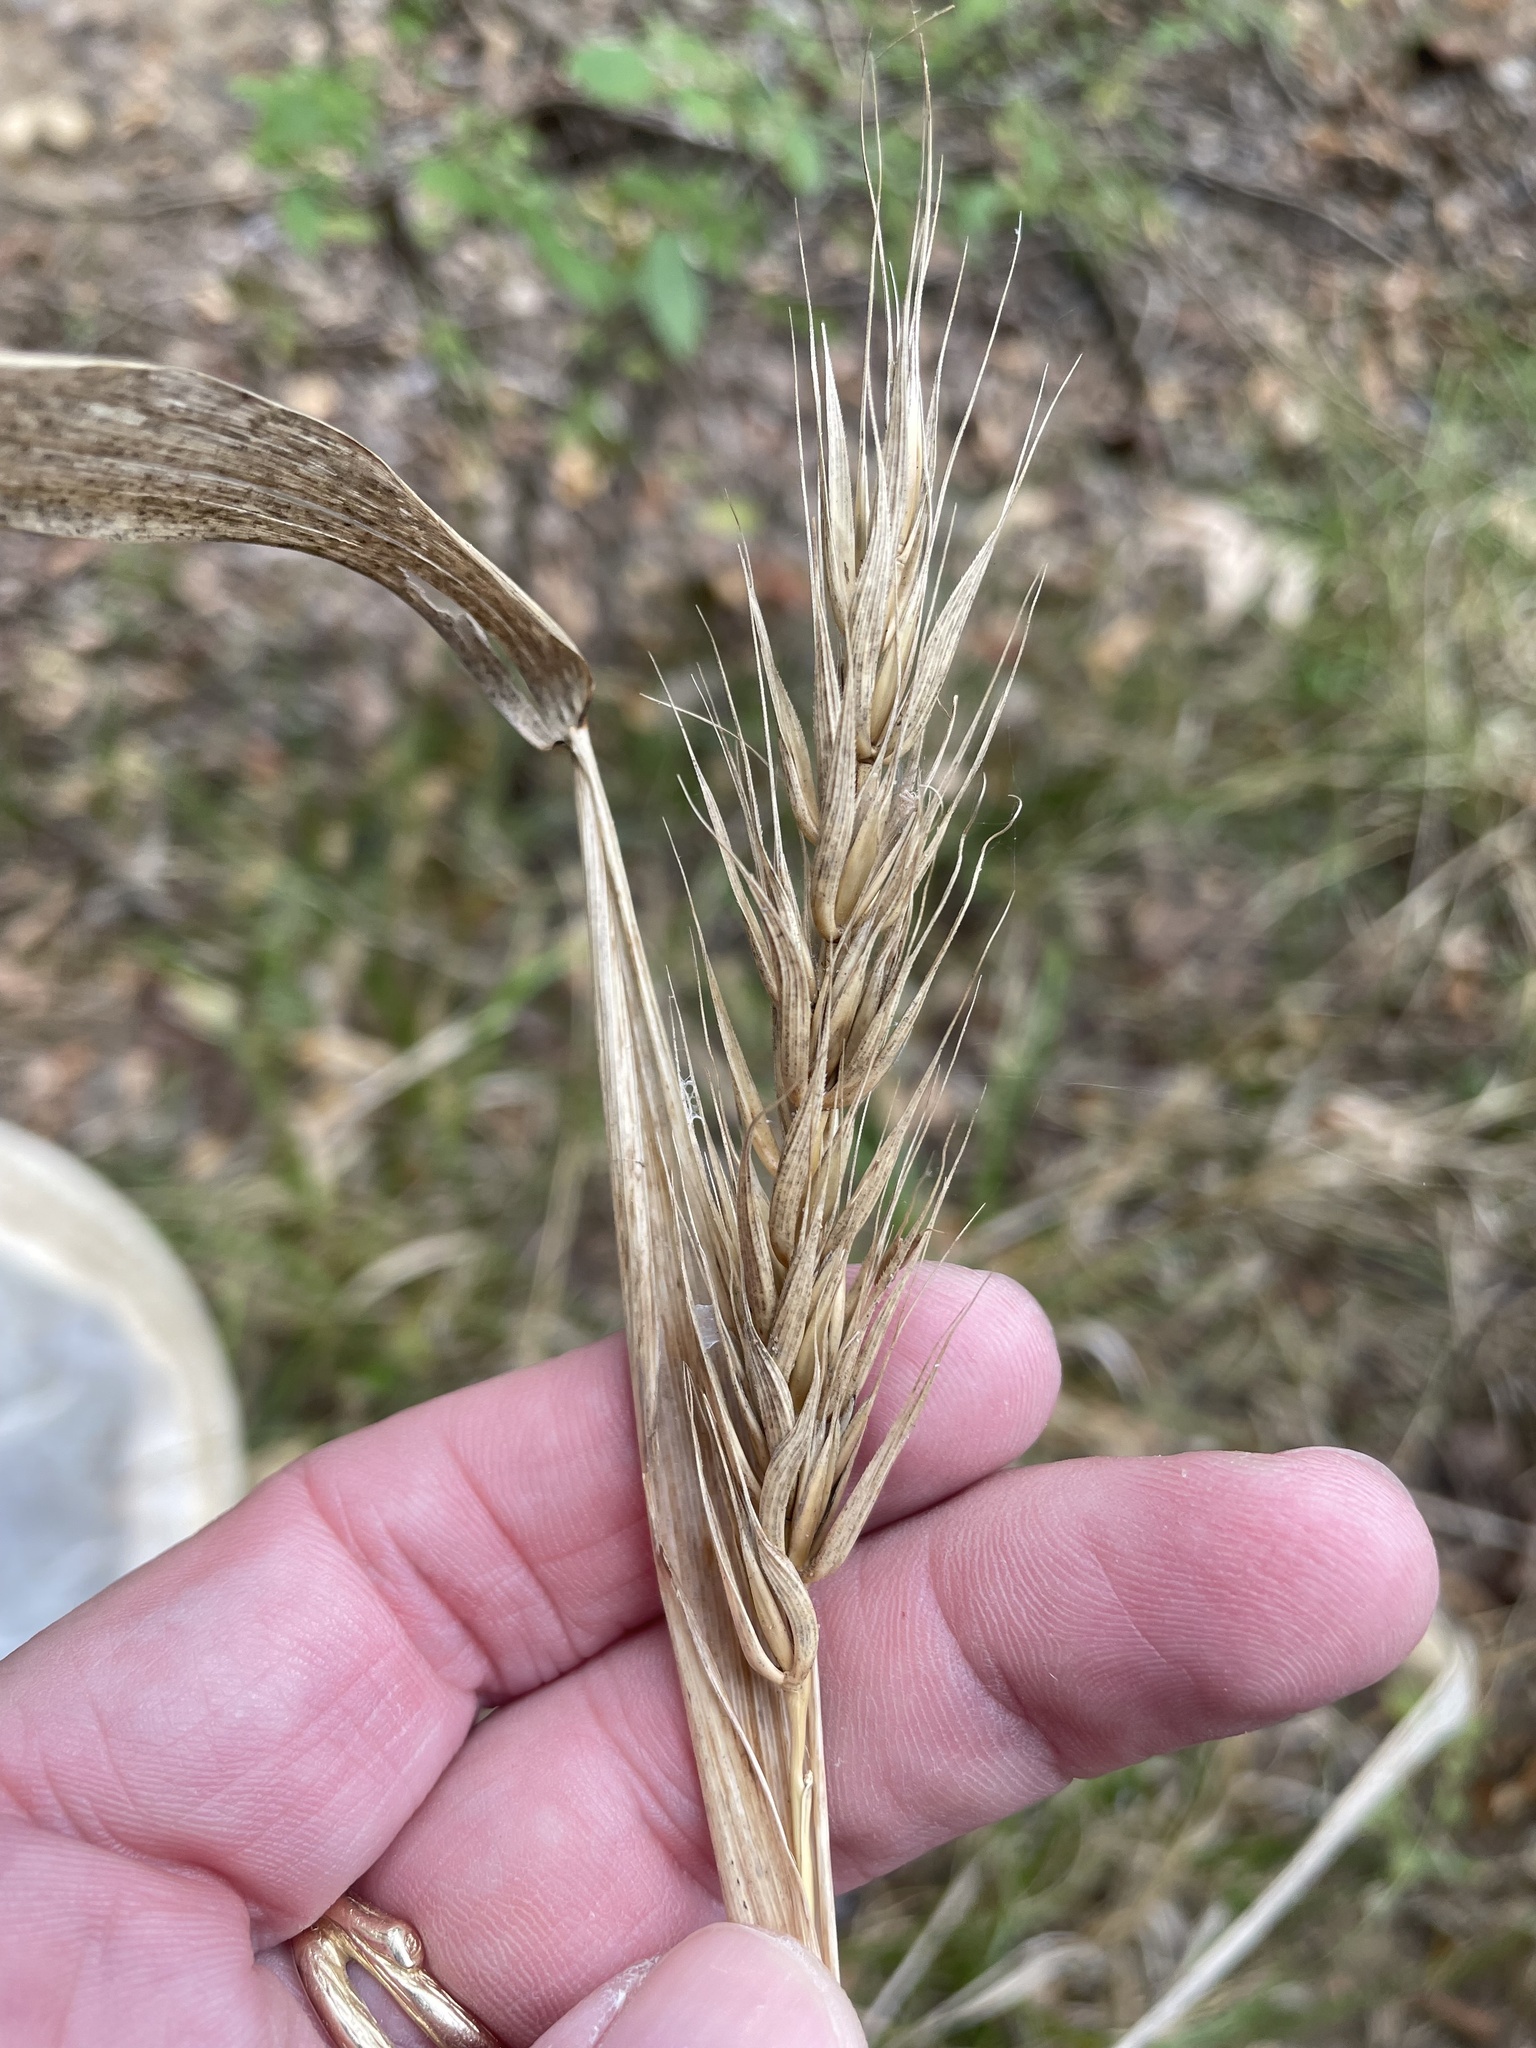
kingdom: Plantae
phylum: Tracheophyta
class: Liliopsida
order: Poales
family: Poaceae
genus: Elymus
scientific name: Elymus virginicus
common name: Common eastern wildrye
